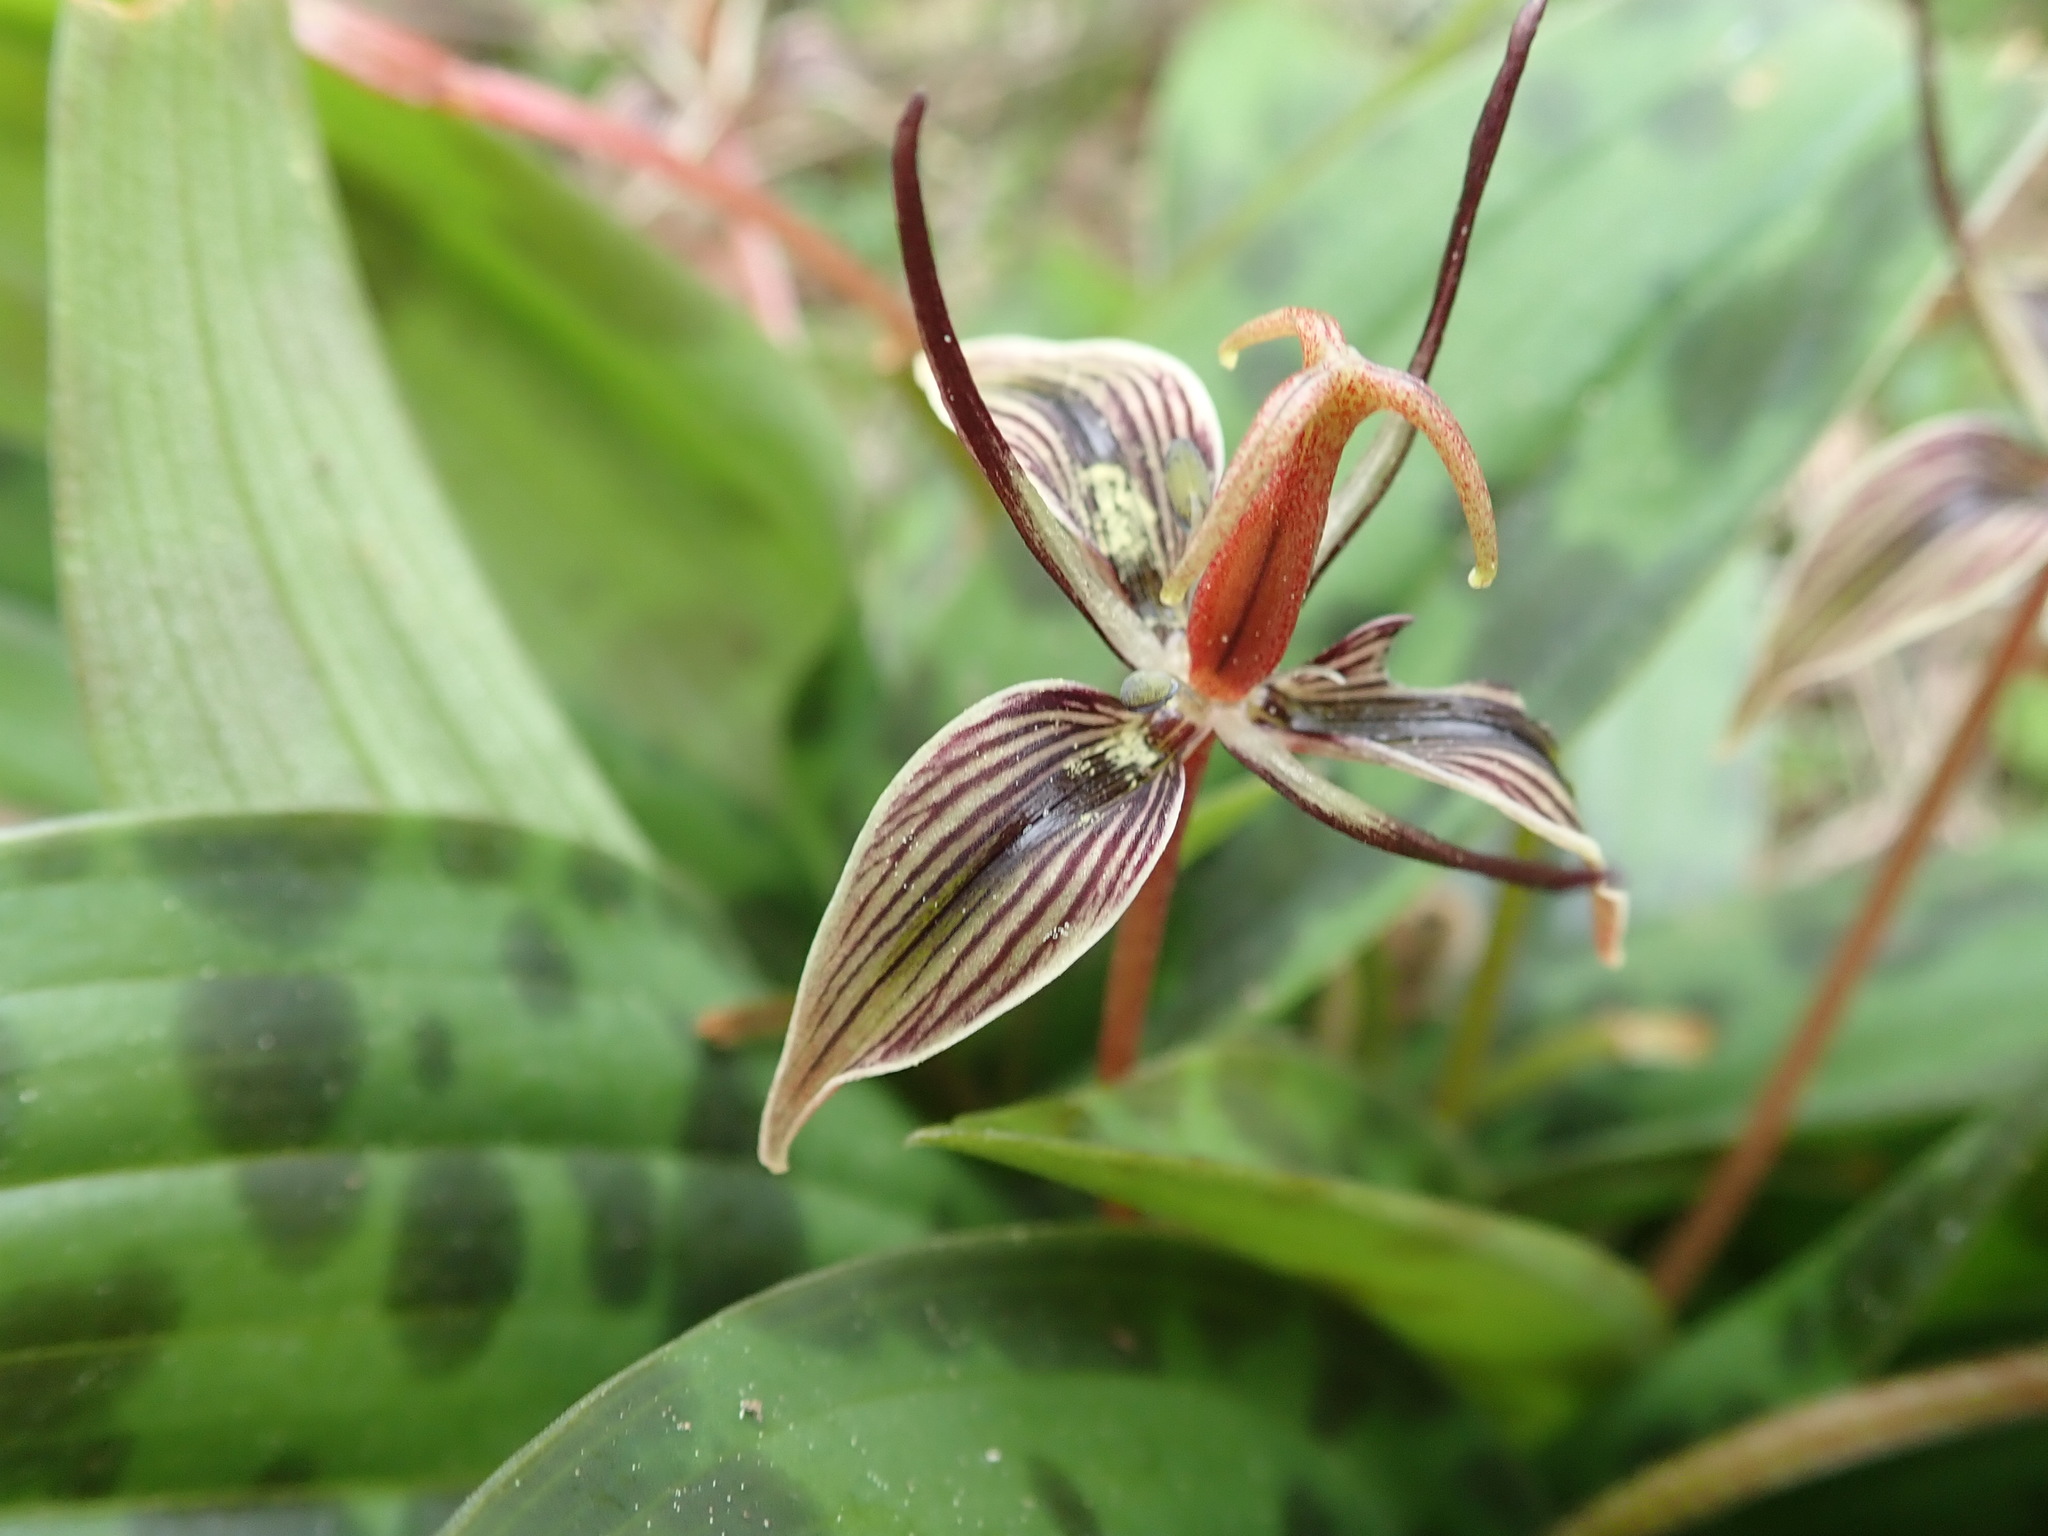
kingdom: Plantae
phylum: Tracheophyta
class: Liliopsida
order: Liliales
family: Liliaceae
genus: Scoliopus
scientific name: Scoliopus bigelovii
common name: Foetid adder's-tongue
